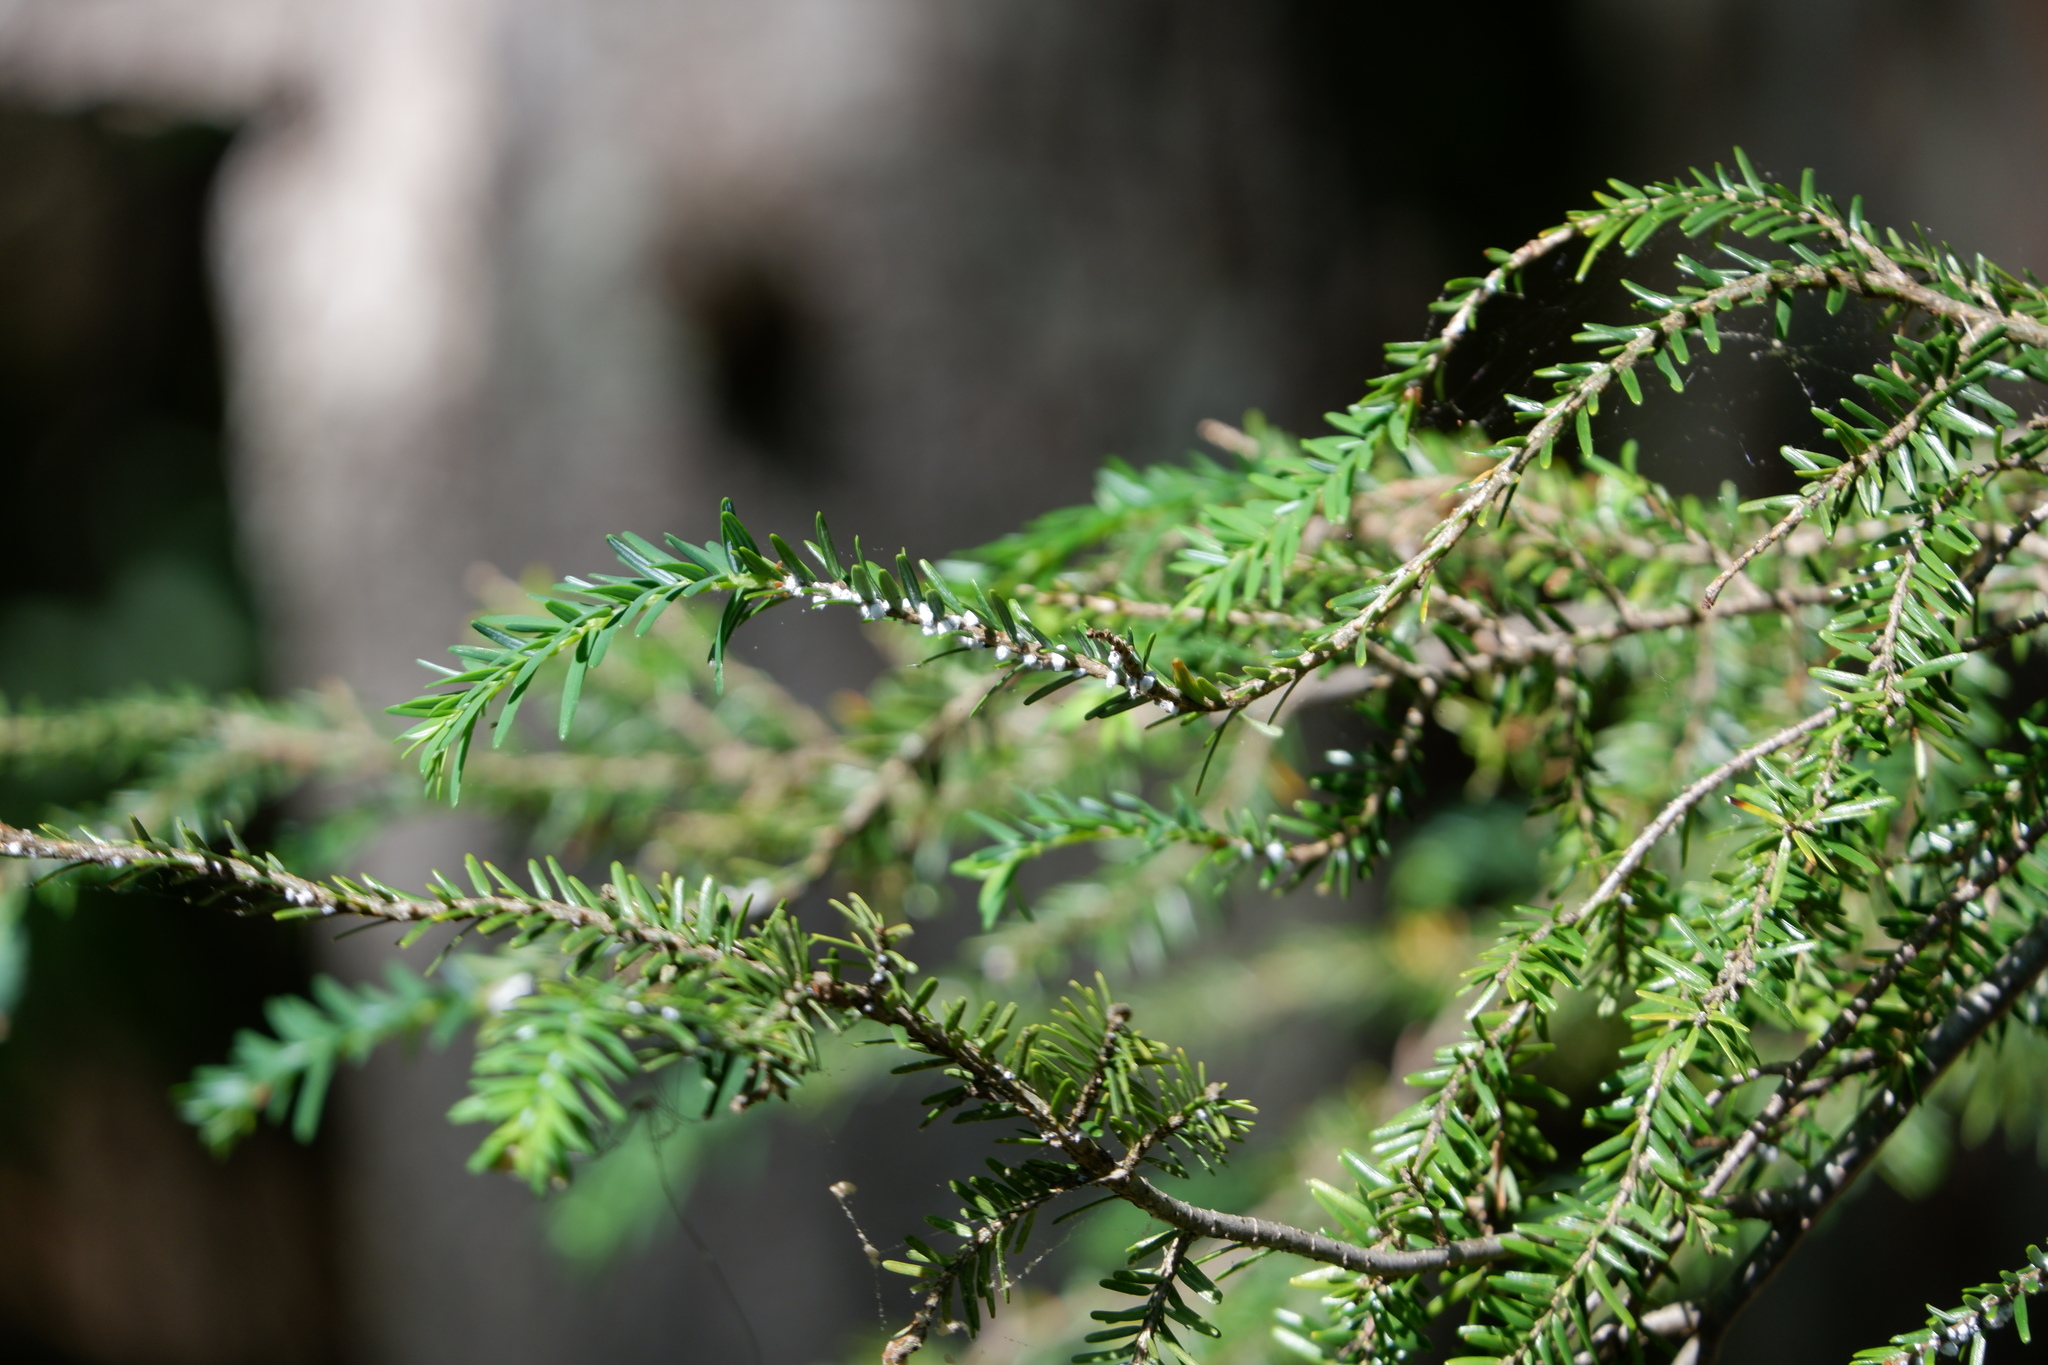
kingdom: Animalia
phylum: Arthropoda
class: Insecta
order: Hemiptera
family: Adelgidae
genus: Adelges
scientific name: Adelges tsugae
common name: Hemlock woolly adelgid
